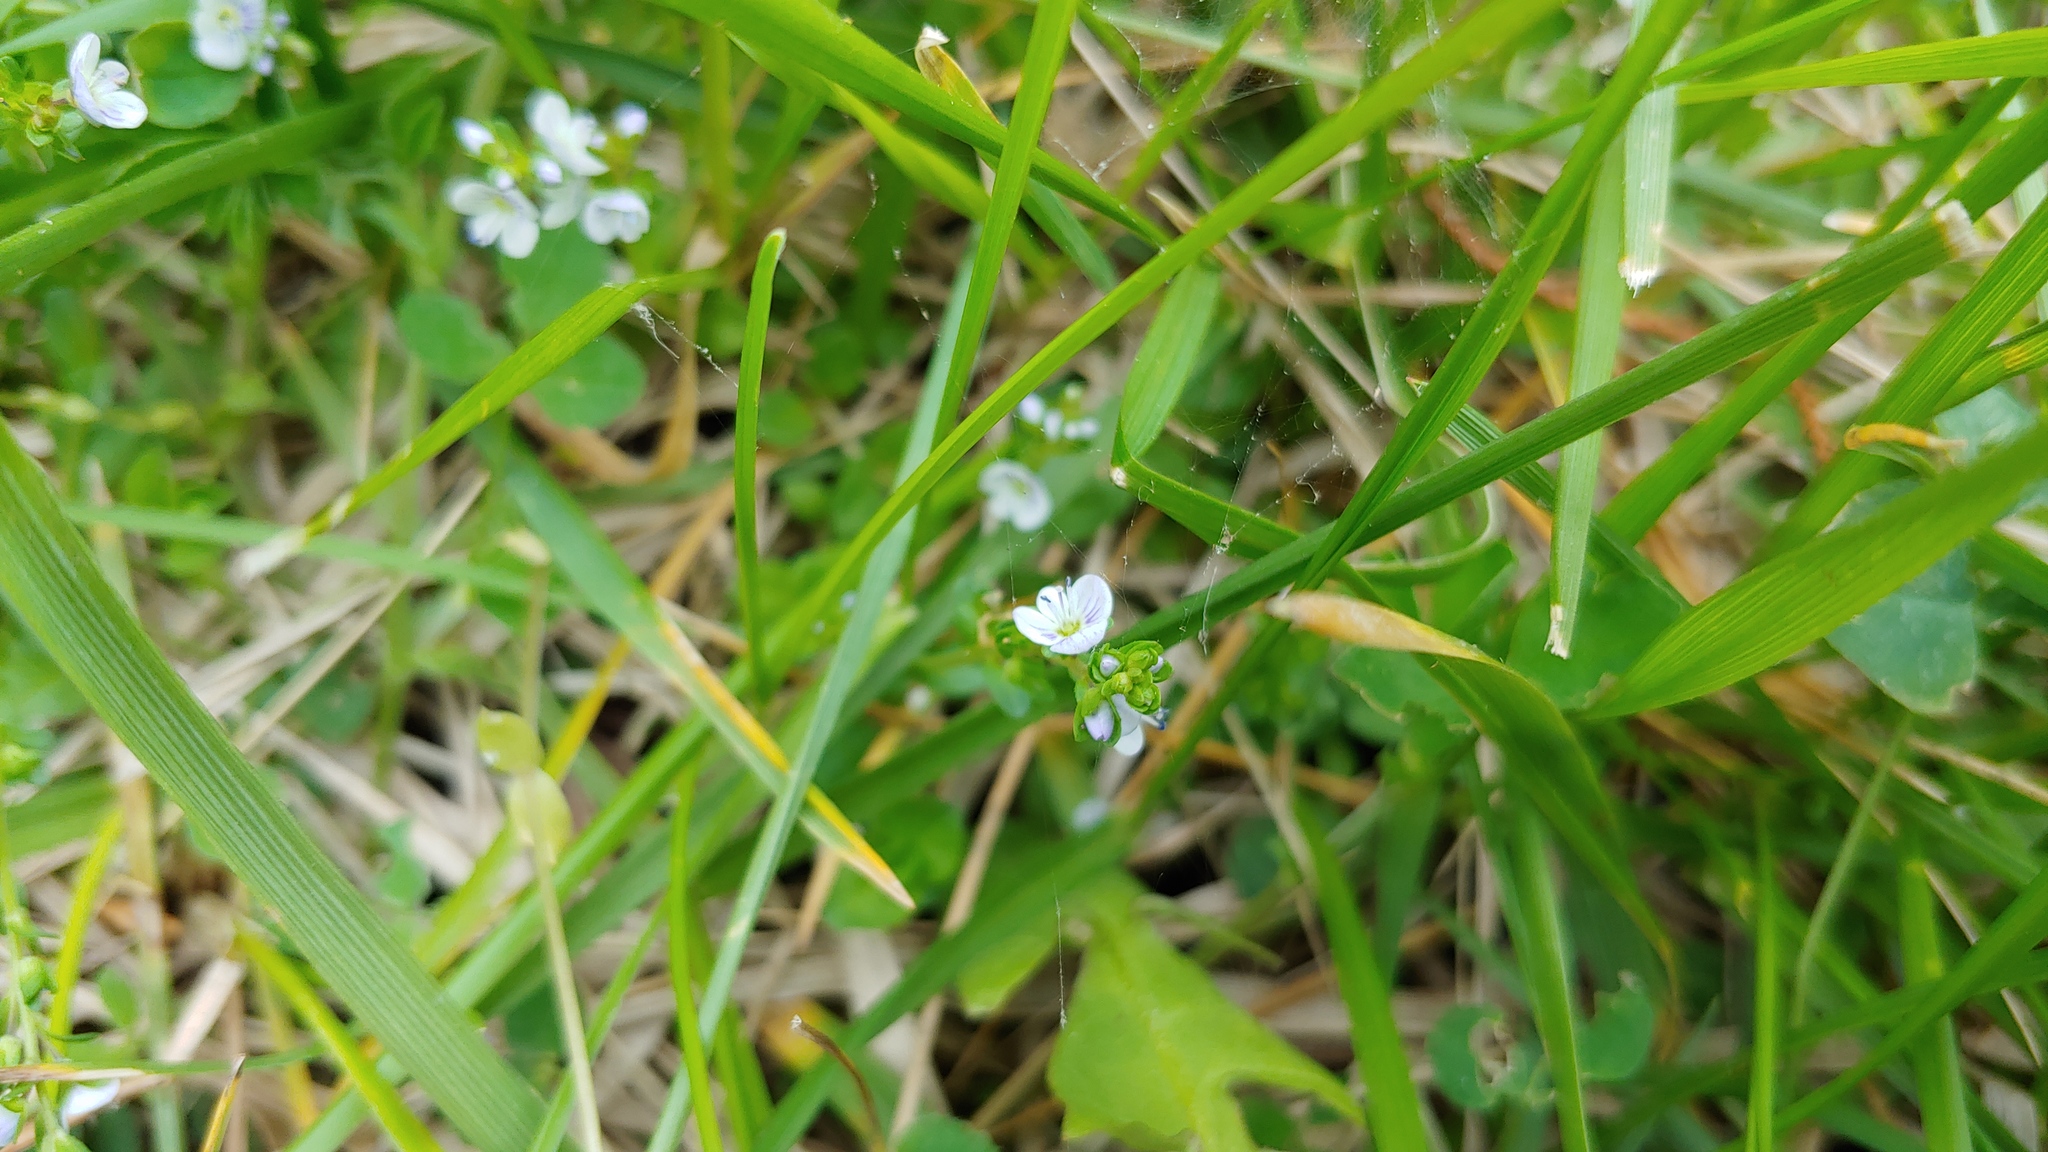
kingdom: Plantae
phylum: Tracheophyta
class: Magnoliopsida
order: Lamiales
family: Plantaginaceae
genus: Veronica
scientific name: Veronica serpyllifolia
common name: Thyme-leaved speedwell
